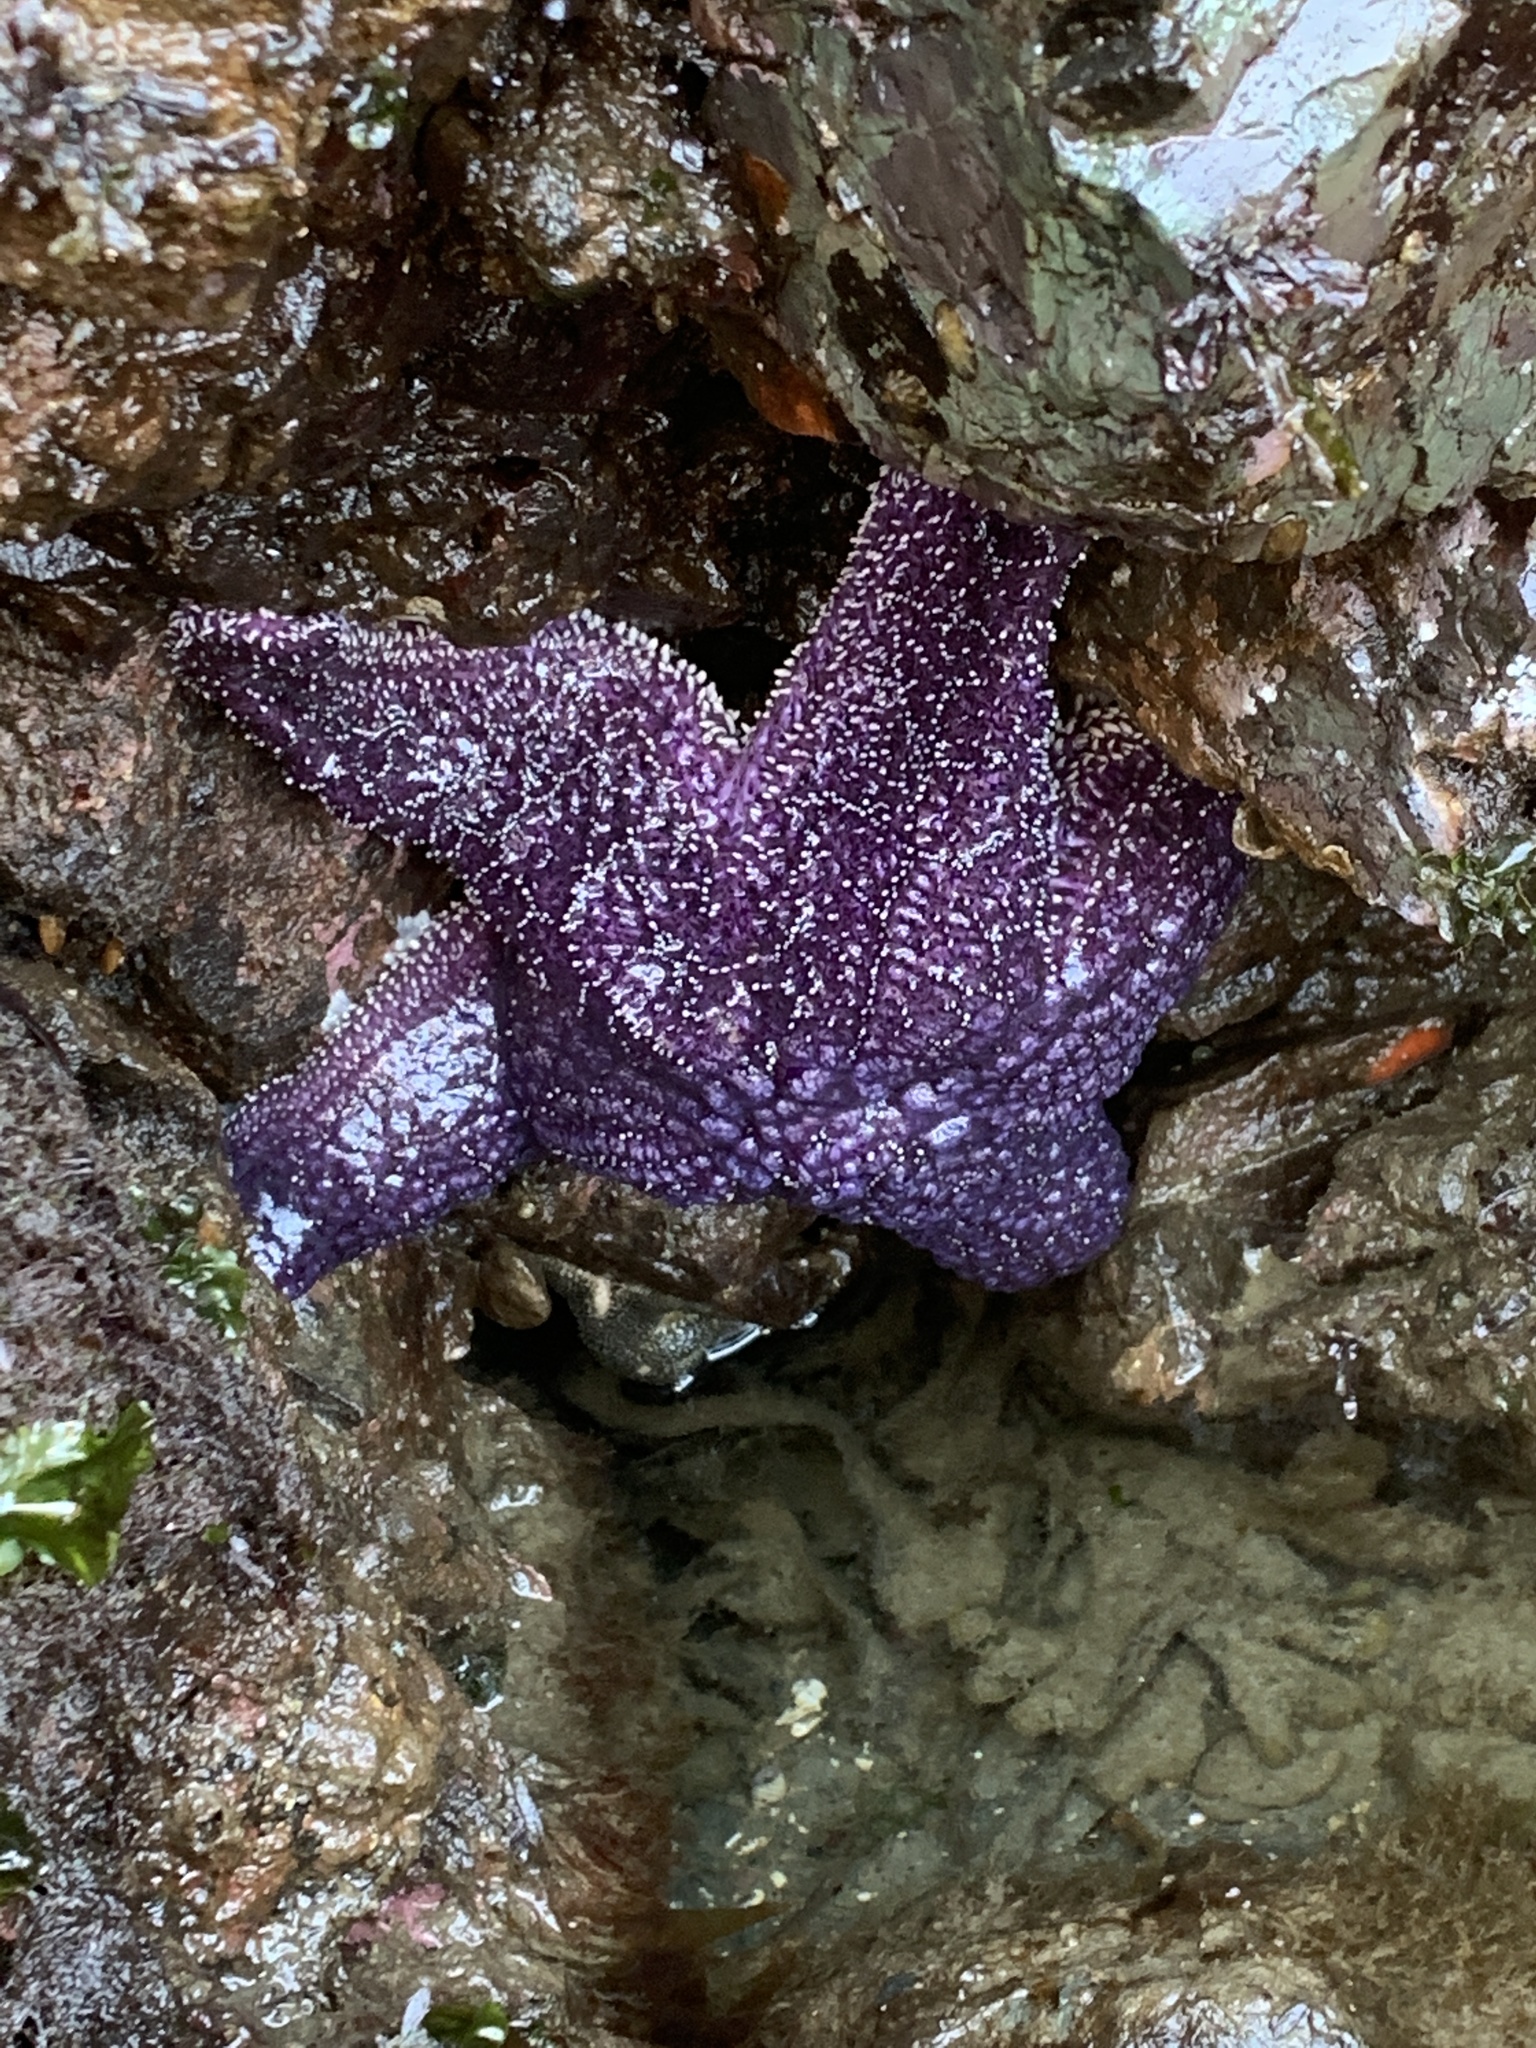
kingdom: Animalia
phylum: Echinodermata
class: Asteroidea
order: Forcipulatida
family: Asteriidae
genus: Pisaster
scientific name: Pisaster ochraceus
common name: Ochre stars
